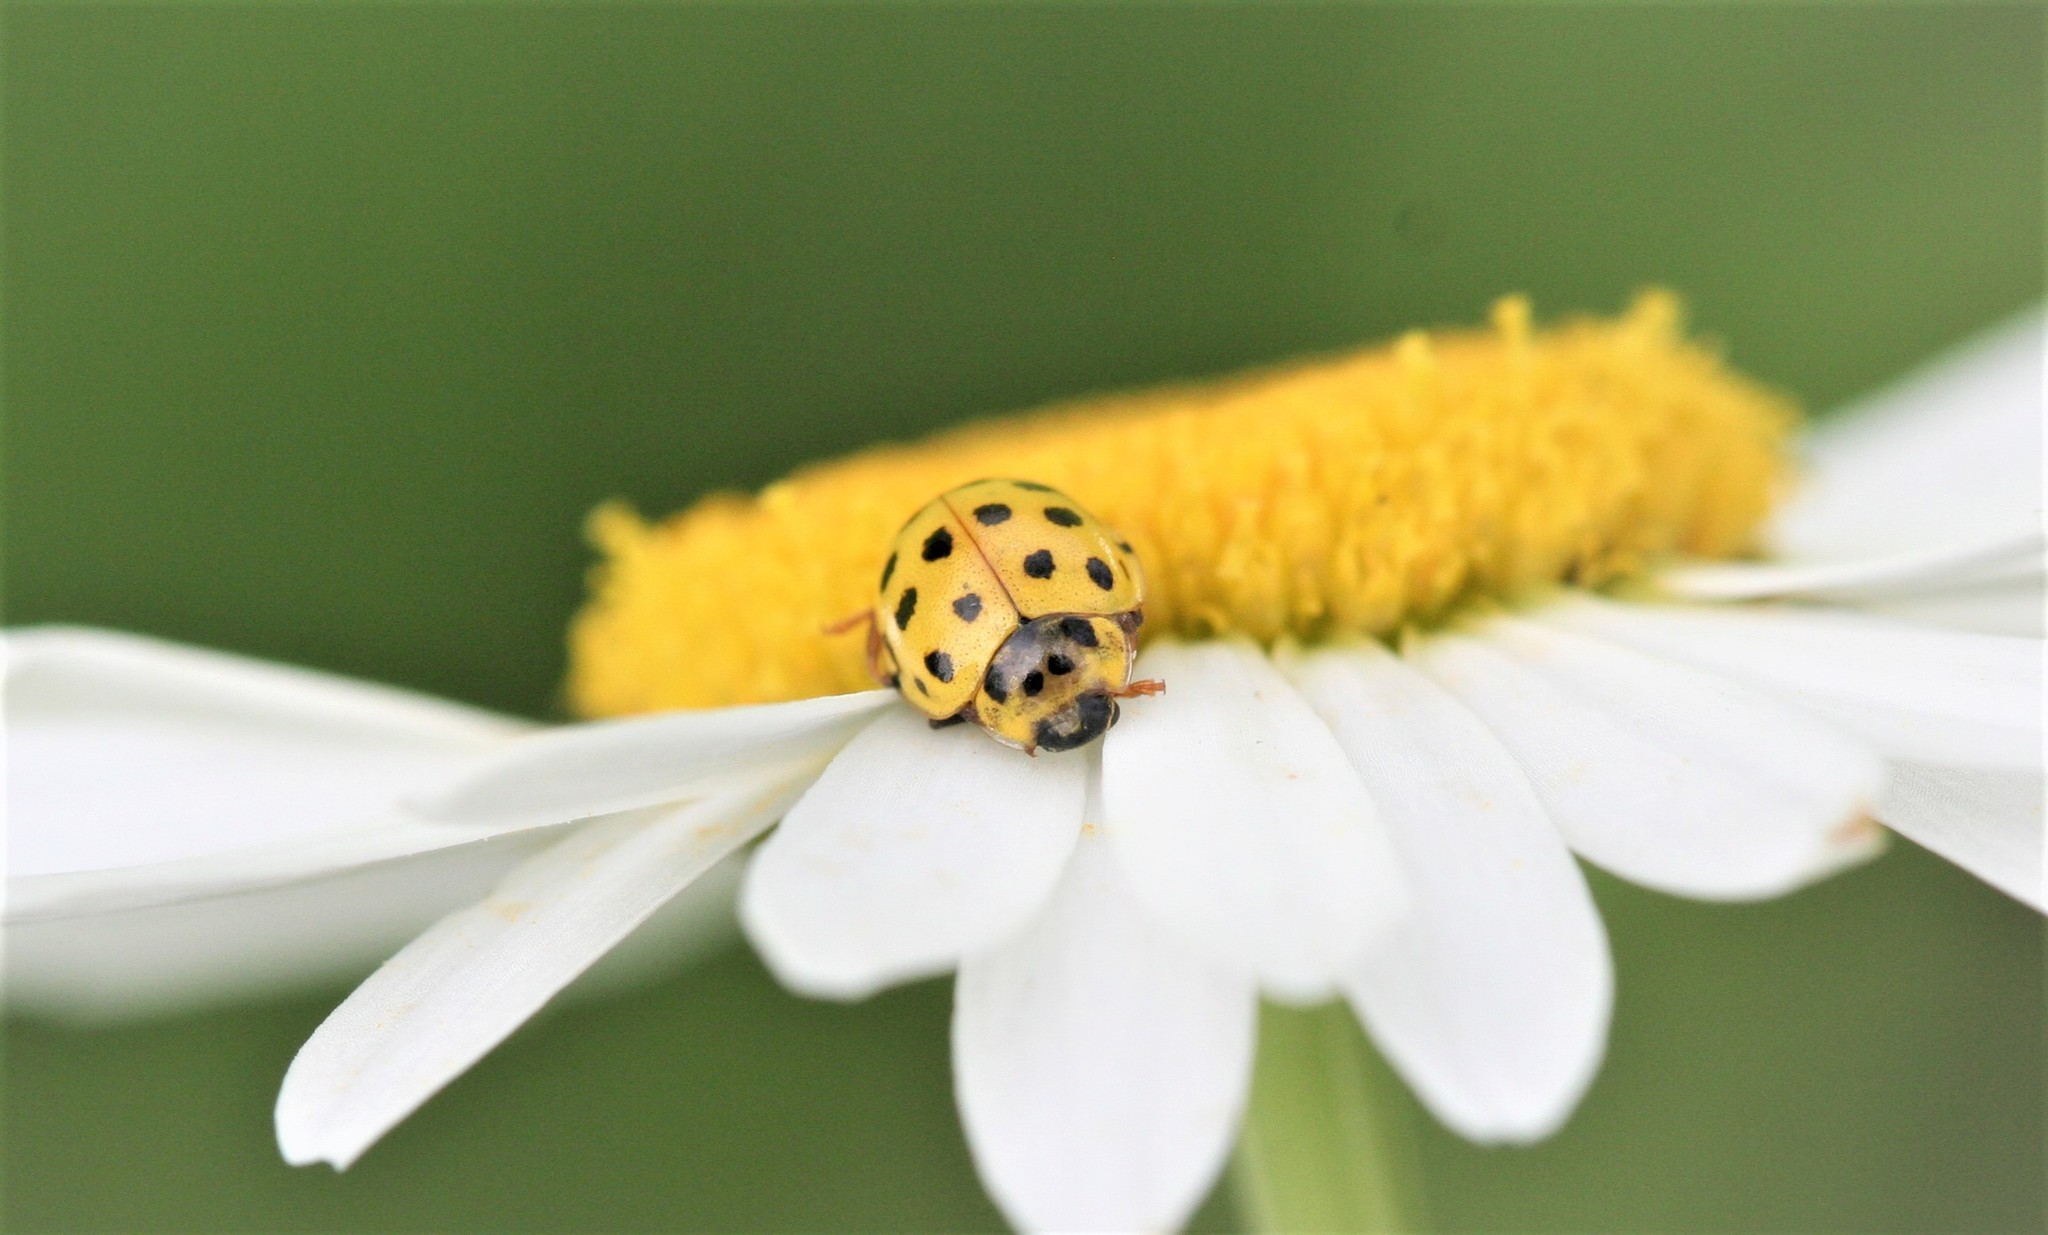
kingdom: Animalia
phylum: Arthropoda
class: Insecta
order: Coleoptera
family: Coccinellidae
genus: Psyllobora
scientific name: Psyllobora vigintiduopunctata
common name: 22-spot ladybird
